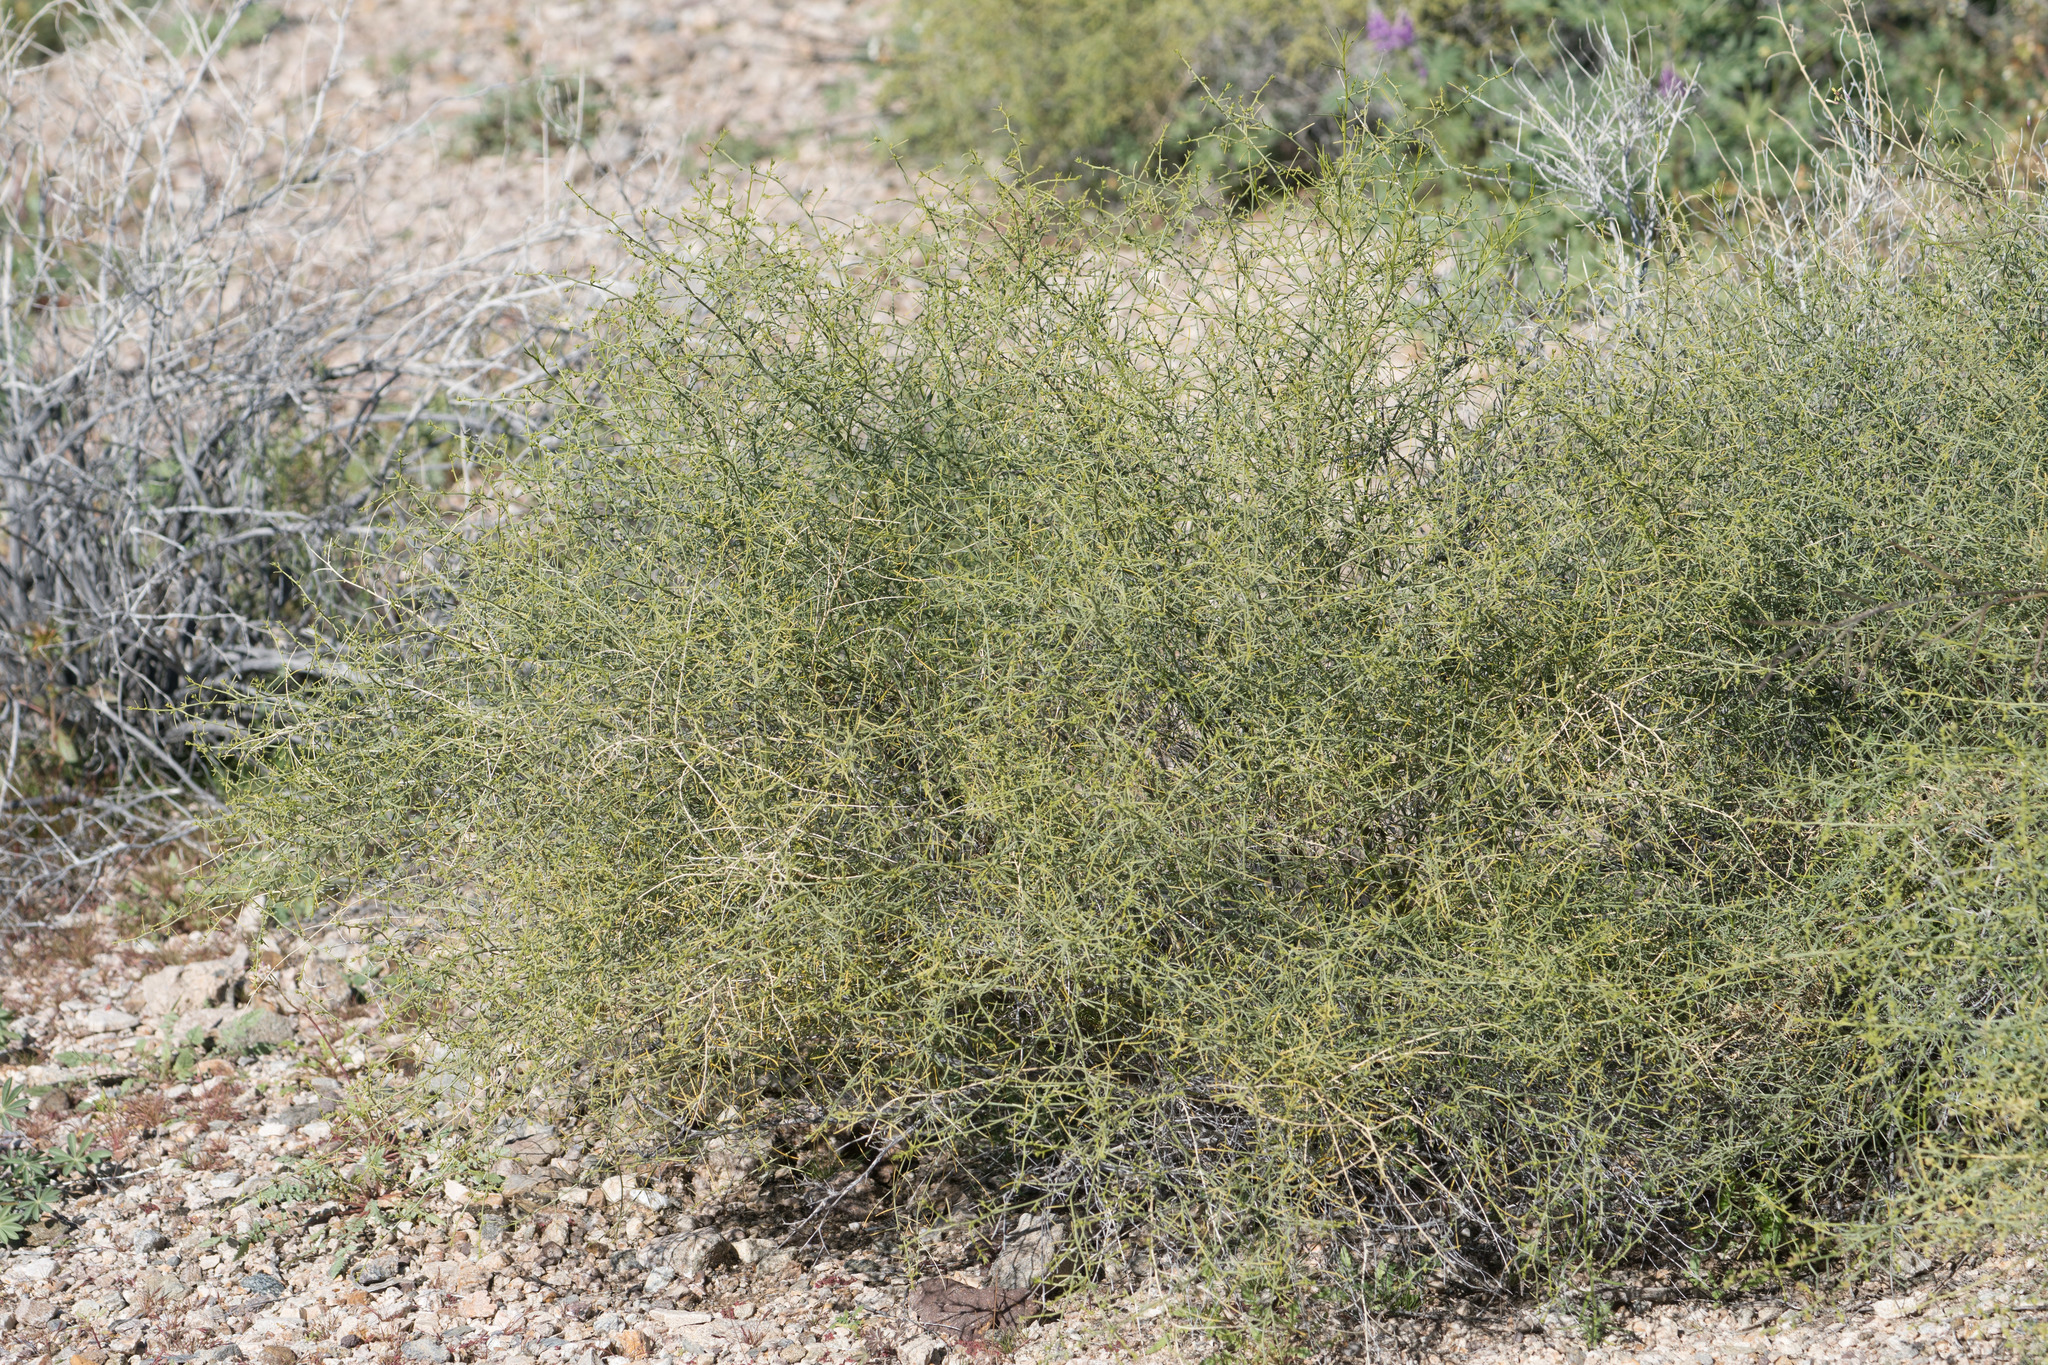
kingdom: Plantae
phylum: Tracheophyta
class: Magnoliopsida
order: Asterales
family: Asteraceae
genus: Ambrosia
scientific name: Ambrosia salsola
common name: Burrobrush
